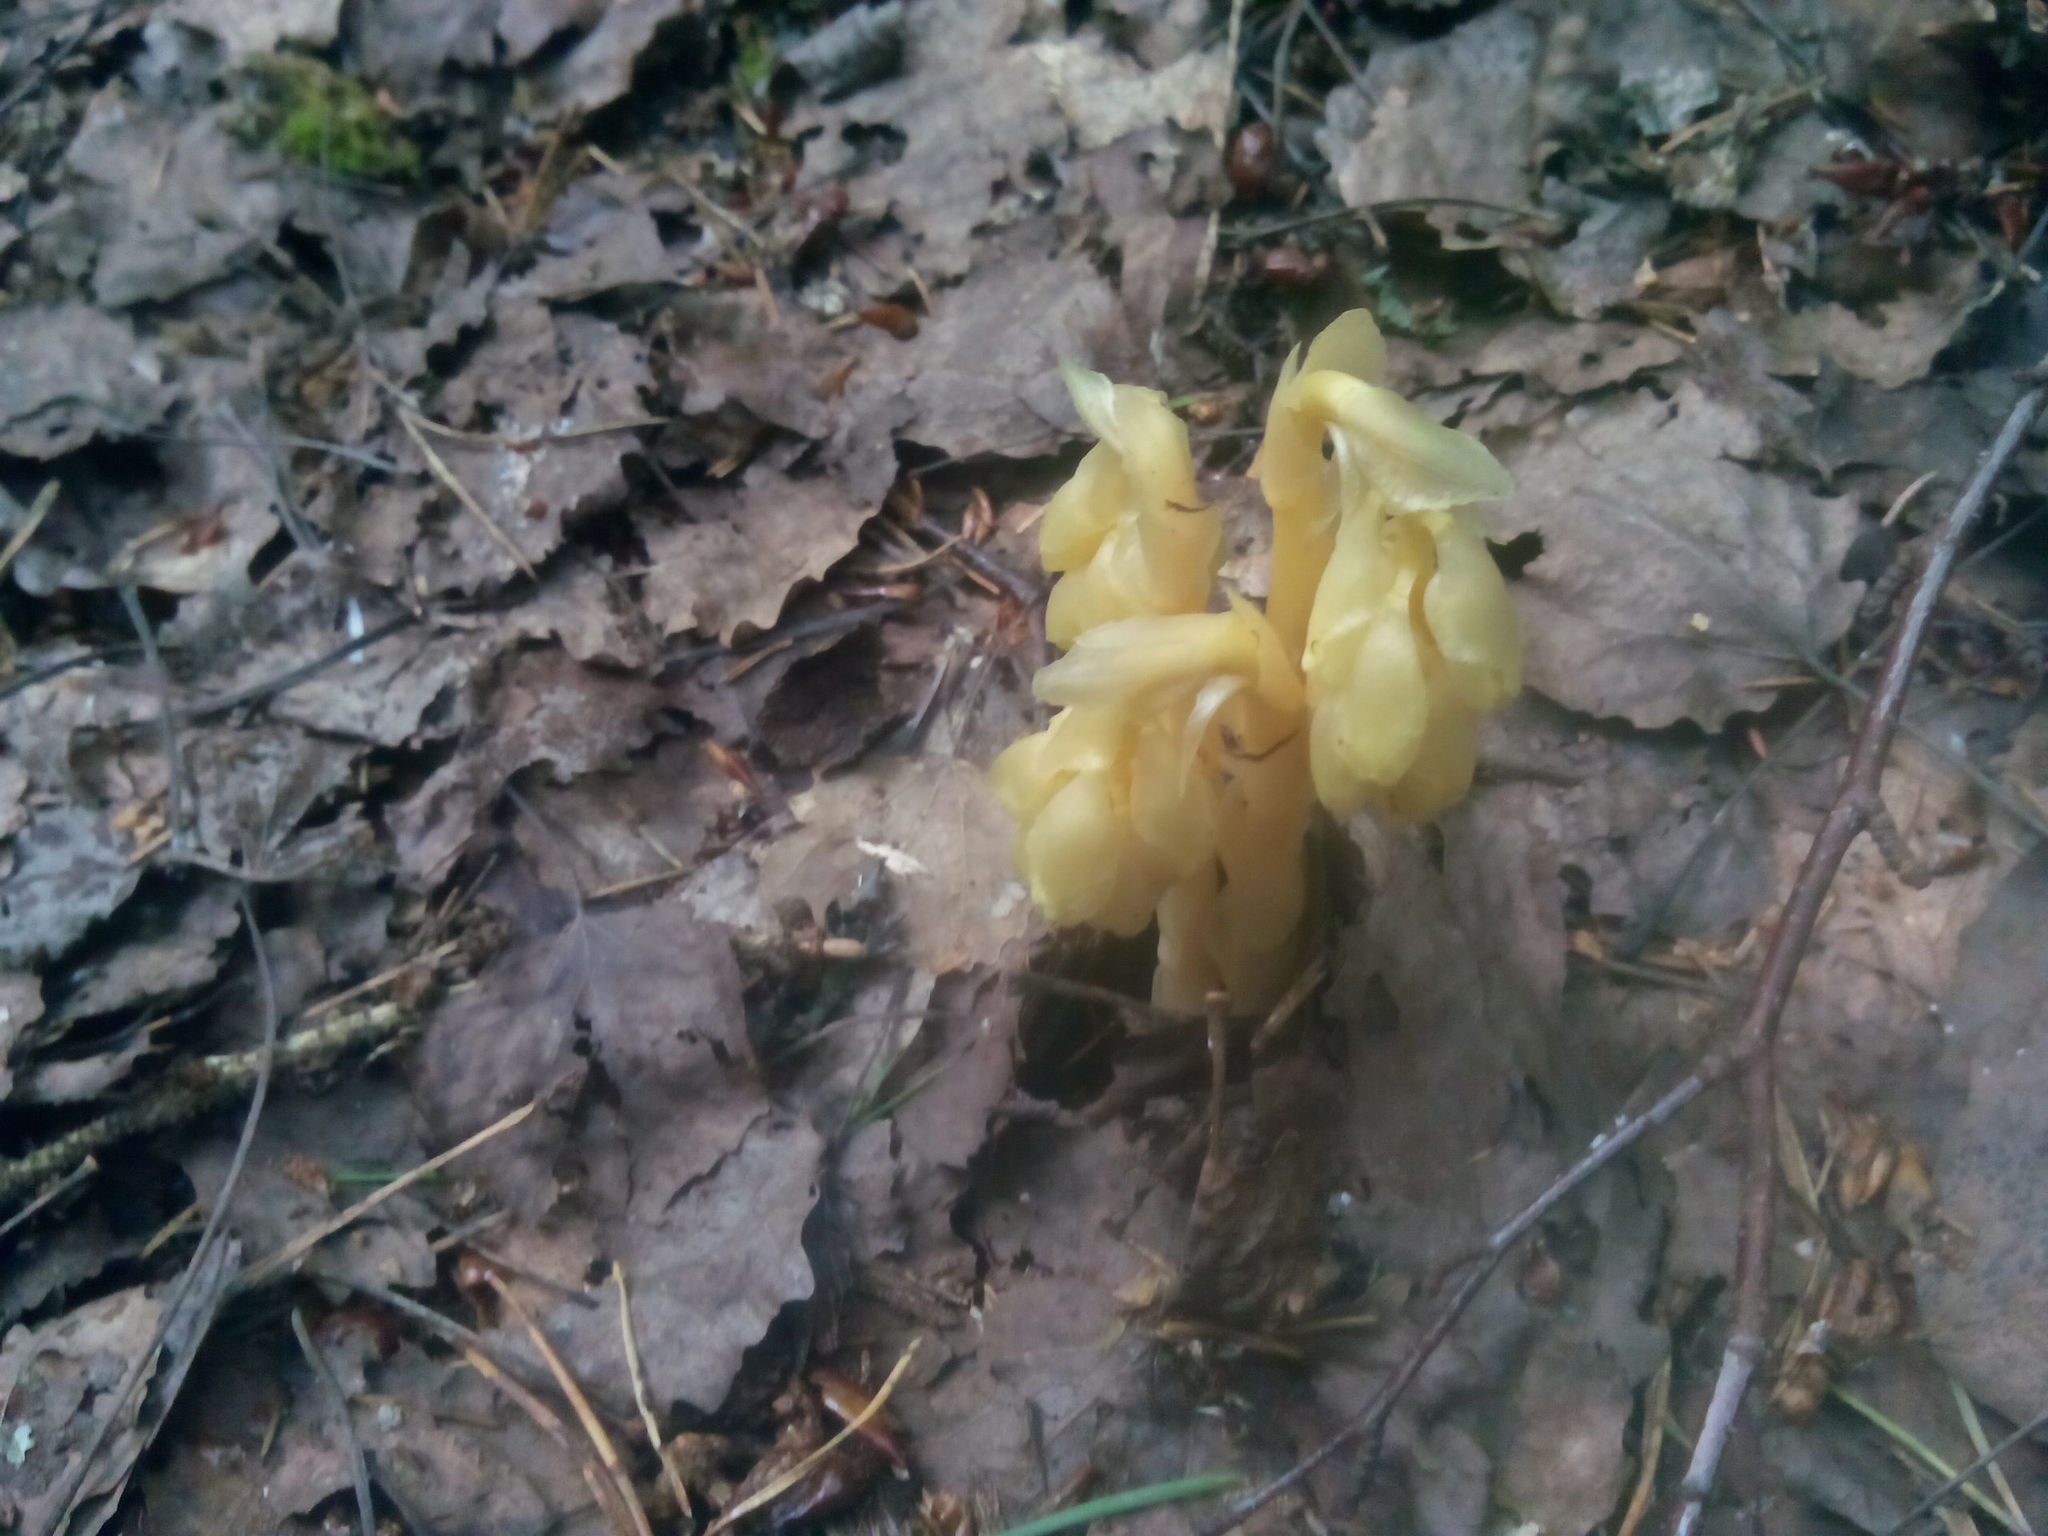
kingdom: Plantae
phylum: Tracheophyta
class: Magnoliopsida
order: Ericales
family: Ericaceae
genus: Hypopitys
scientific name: Hypopitys monotropa
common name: Yellow bird's-nest
